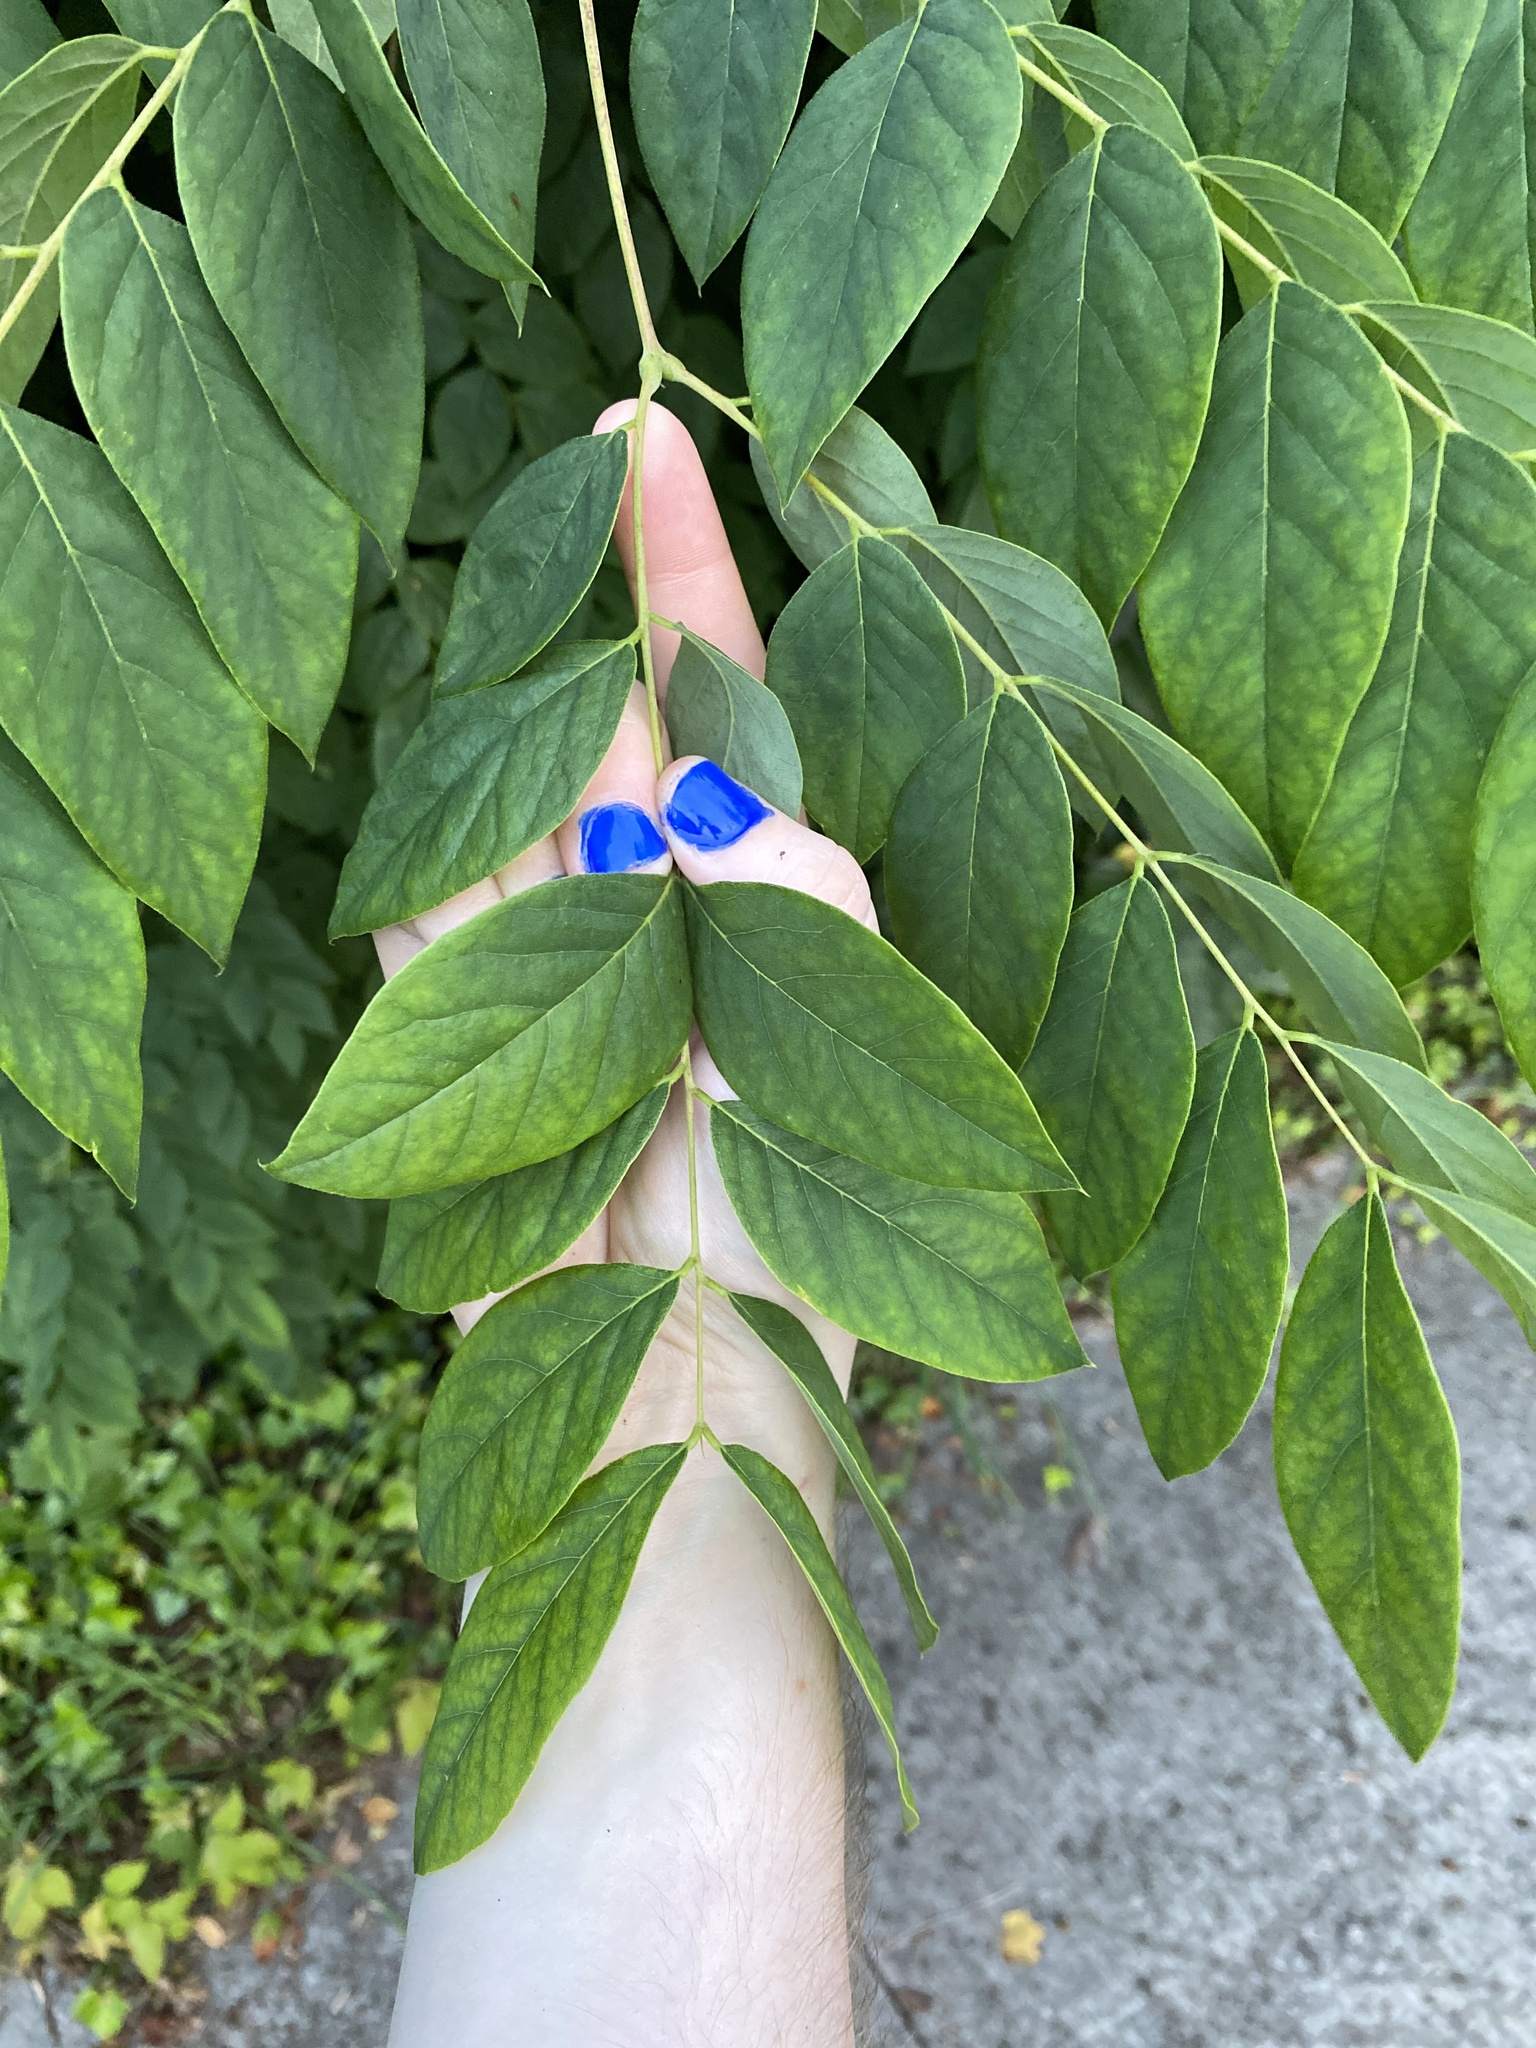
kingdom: Plantae
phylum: Tracheophyta
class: Magnoliopsida
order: Fabales
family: Fabaceae
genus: Gymnocladus
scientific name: Gymnocladus dioicus
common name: Kentucky coffee-tree
